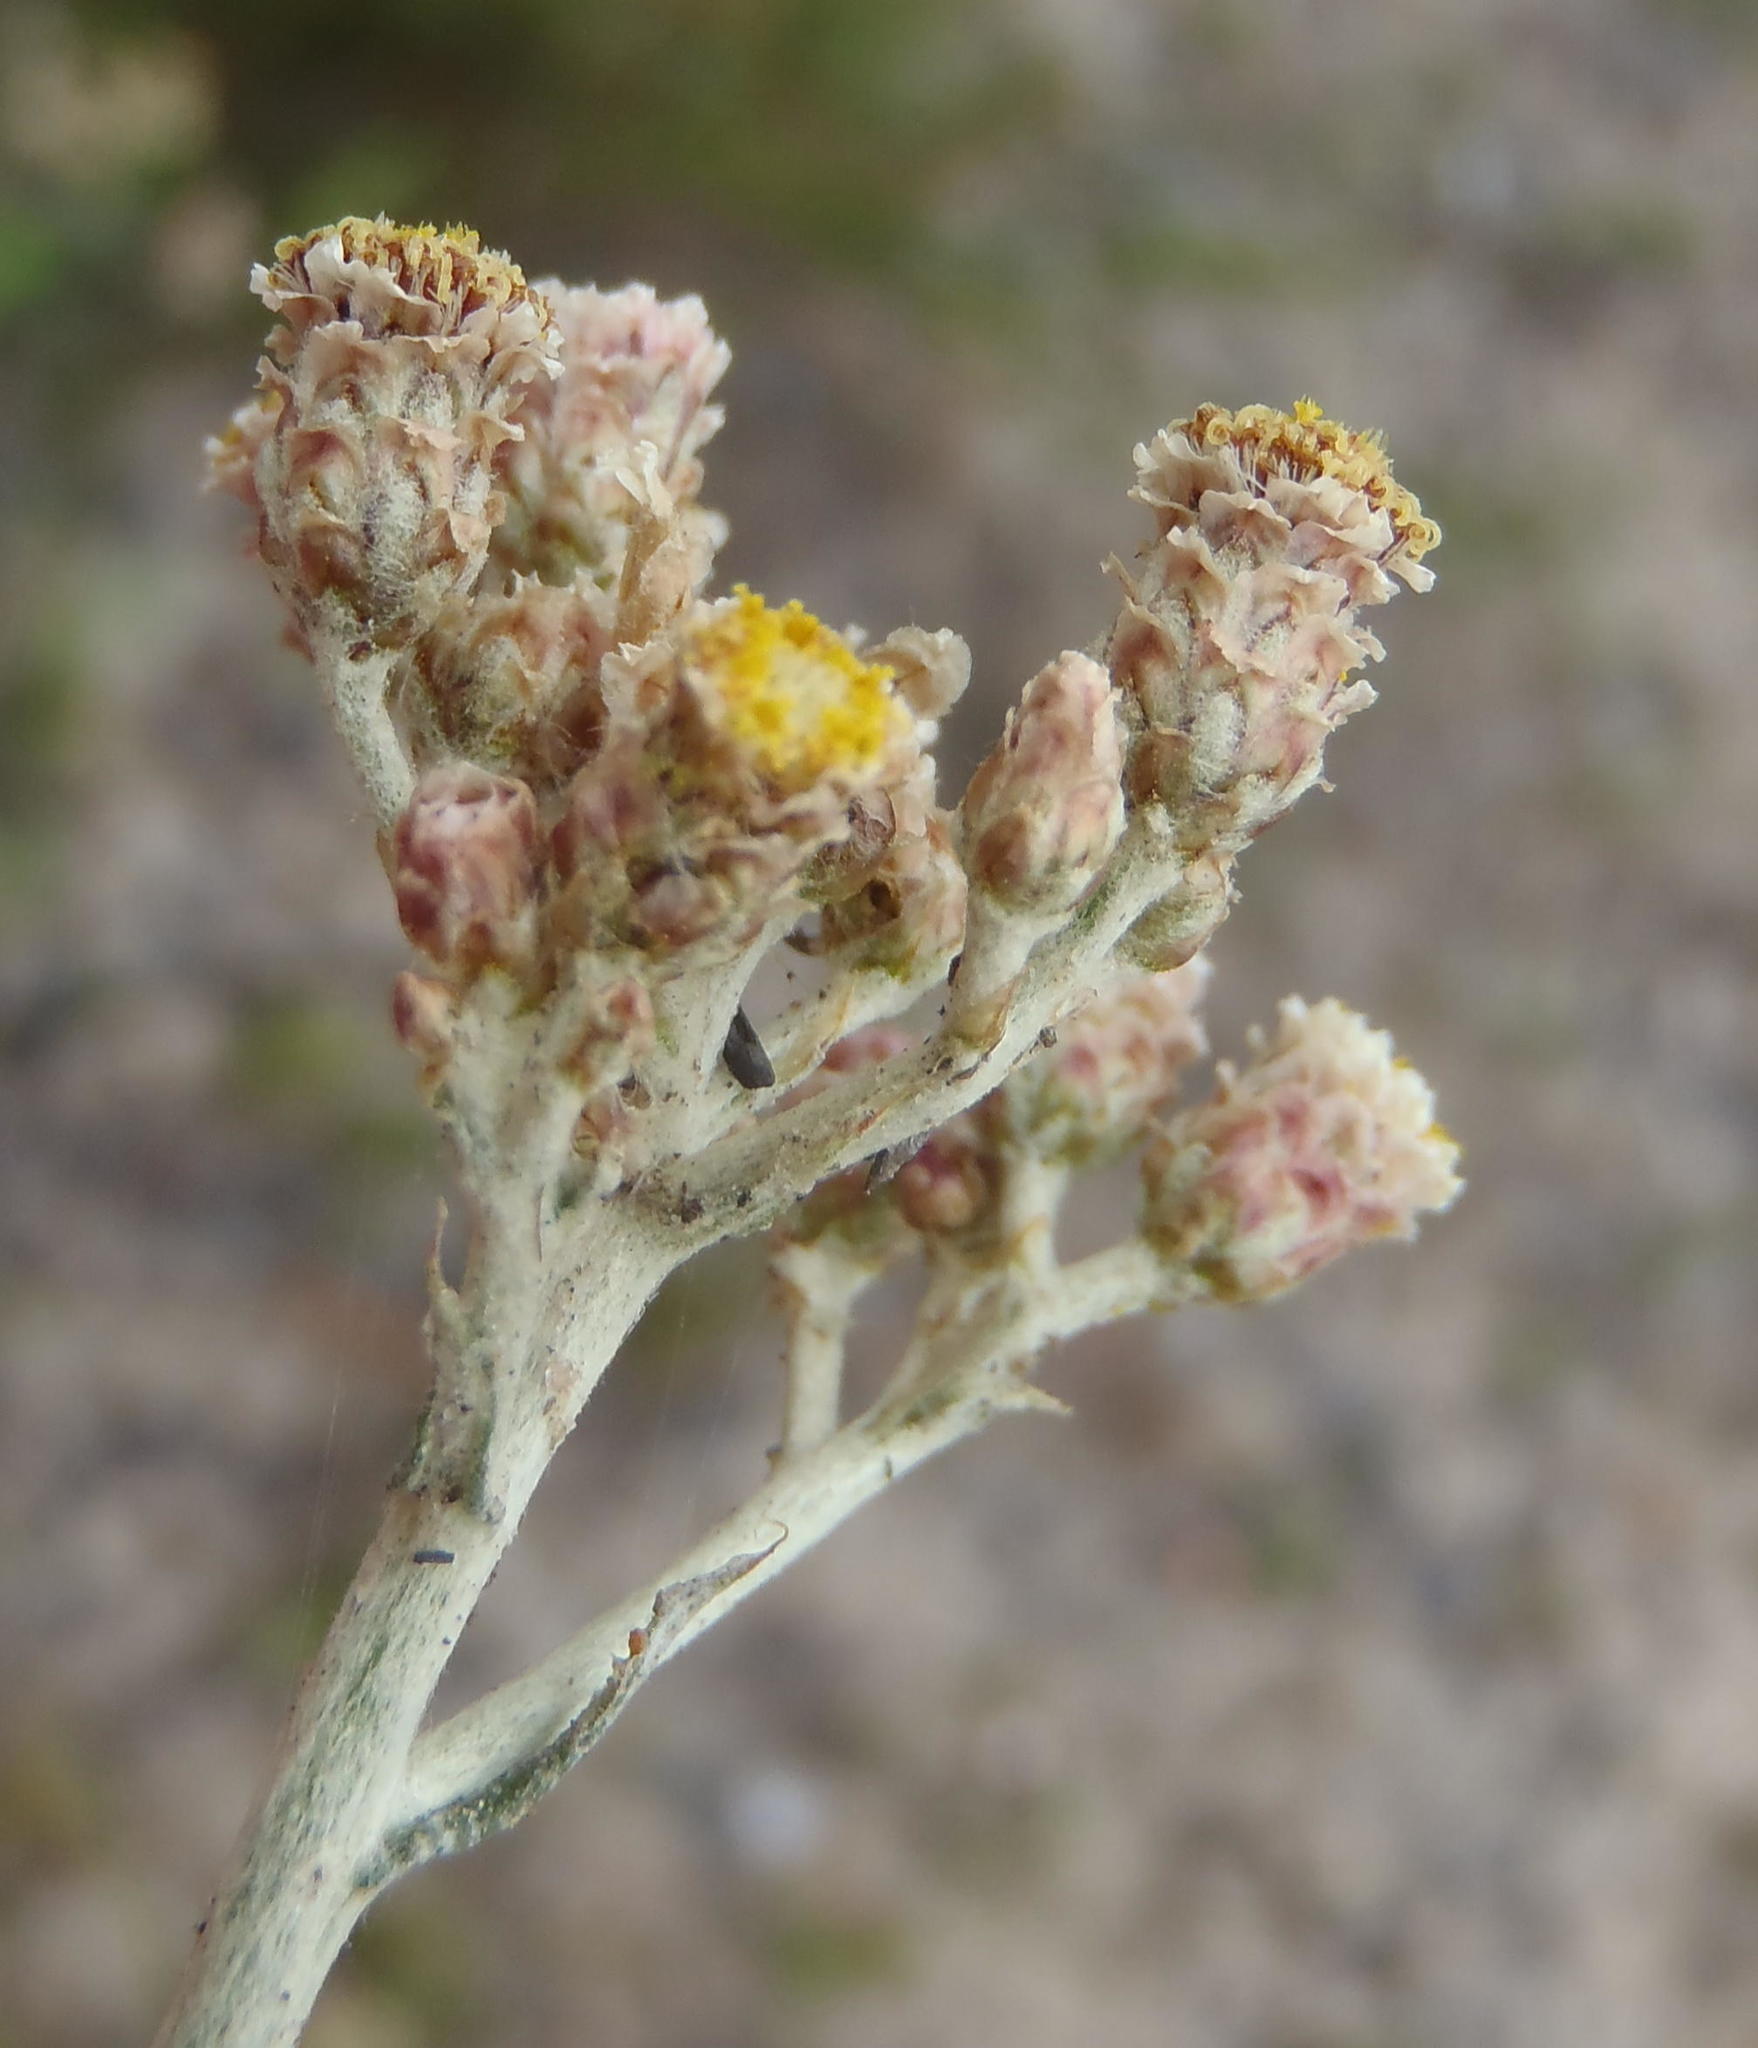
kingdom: Plantae
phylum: Tracheophyta
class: Magnoliopsida
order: Asterales
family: Asteraceae
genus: Helichrysum
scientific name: Helichrysum rugulosum
